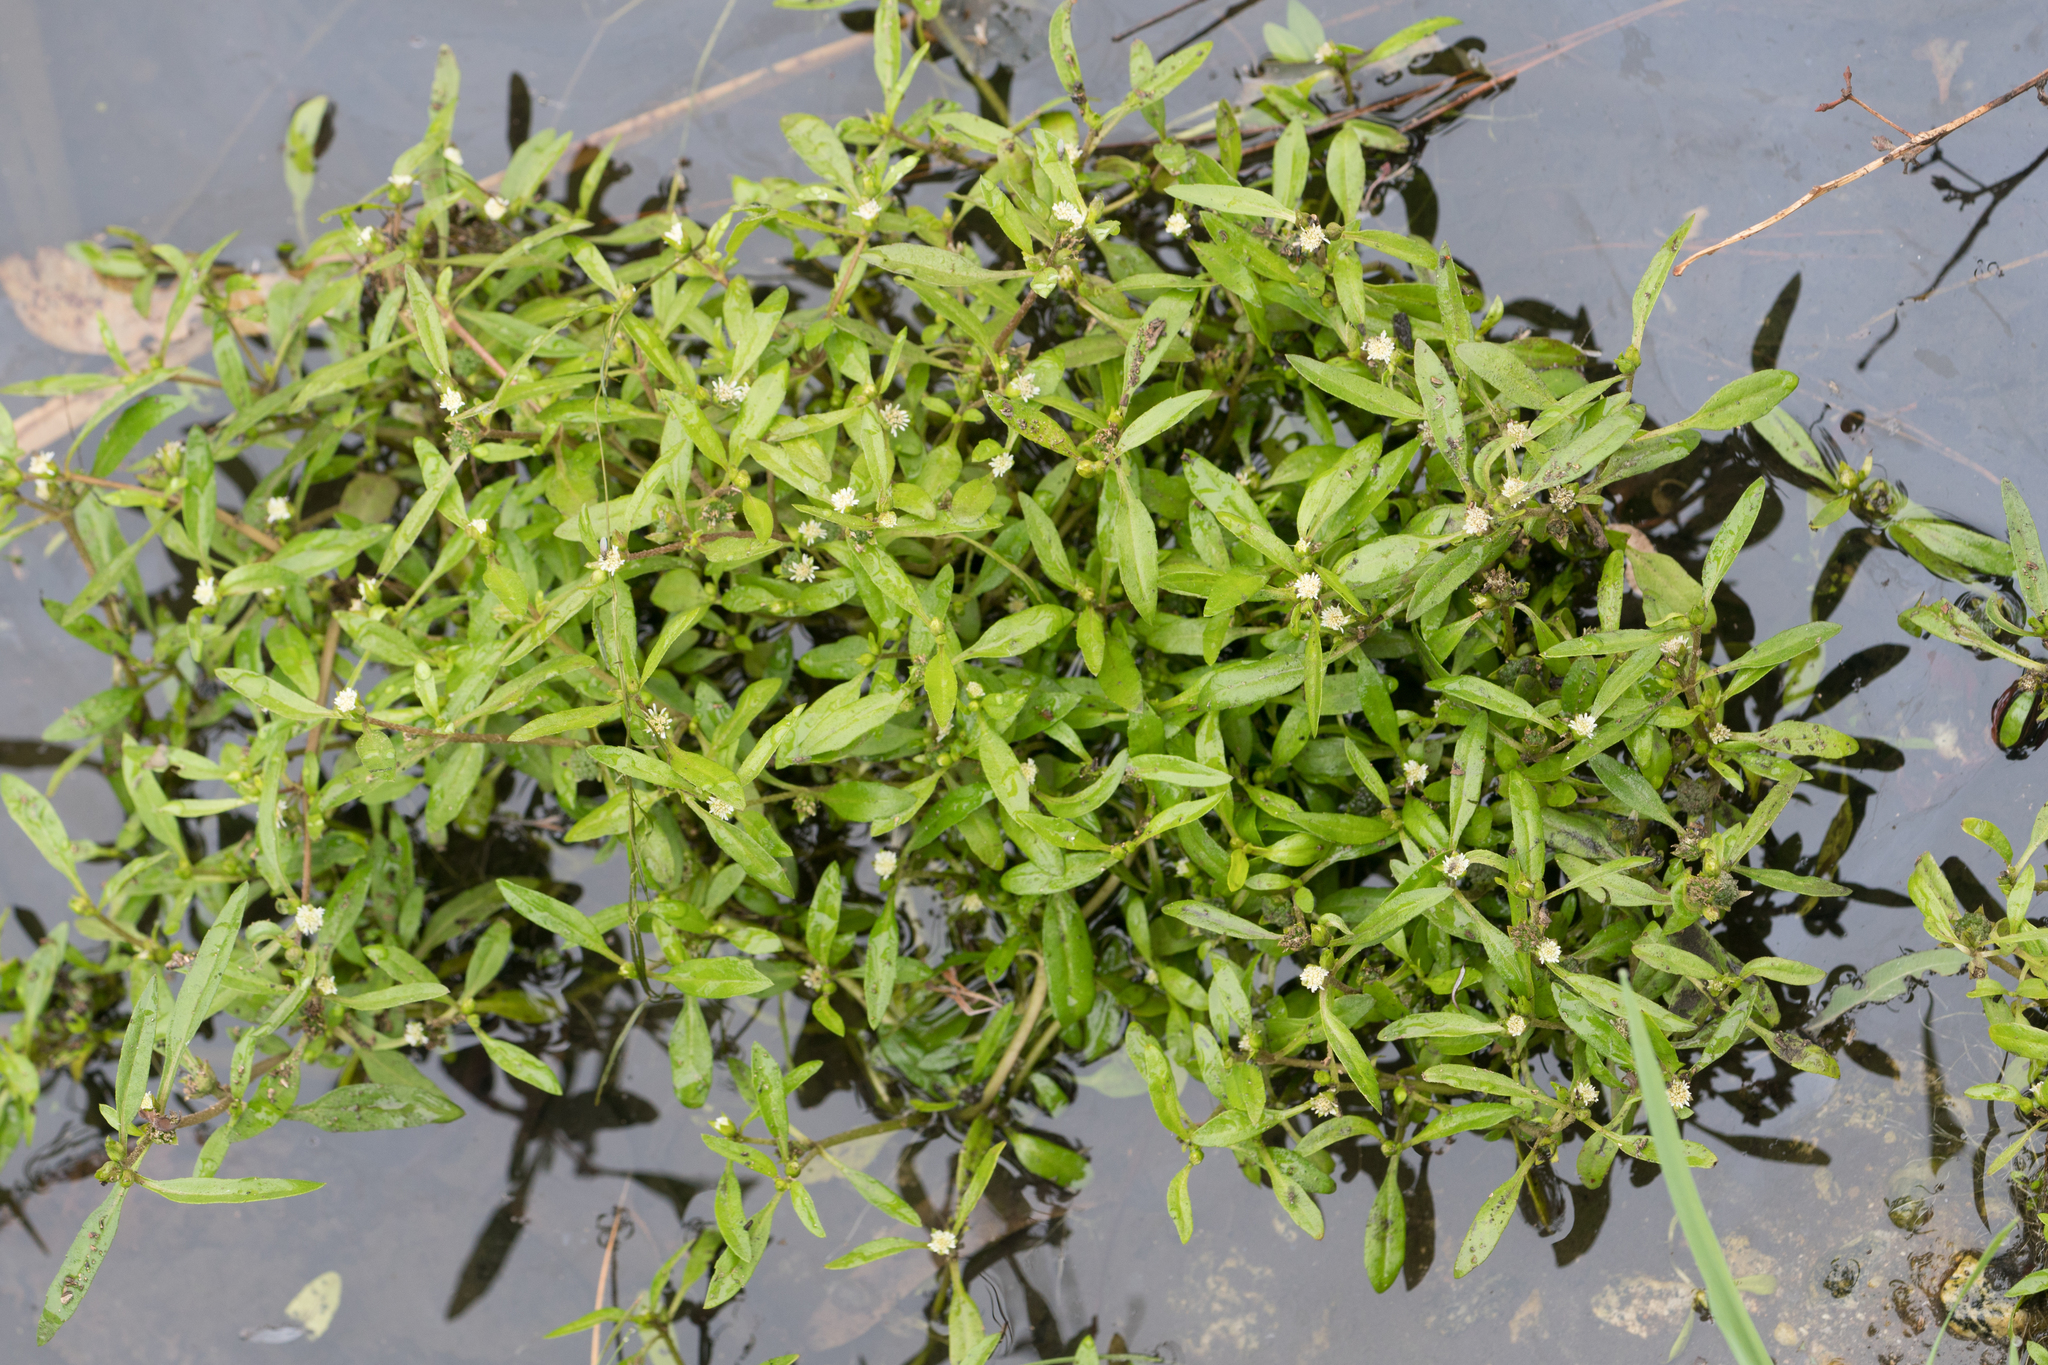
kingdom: Plantae
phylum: Tracheophyta
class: Magnoliopsida
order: Asterales
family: Asteraceae
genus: Eclipta
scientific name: Eclipta prostrata
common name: False daisy
